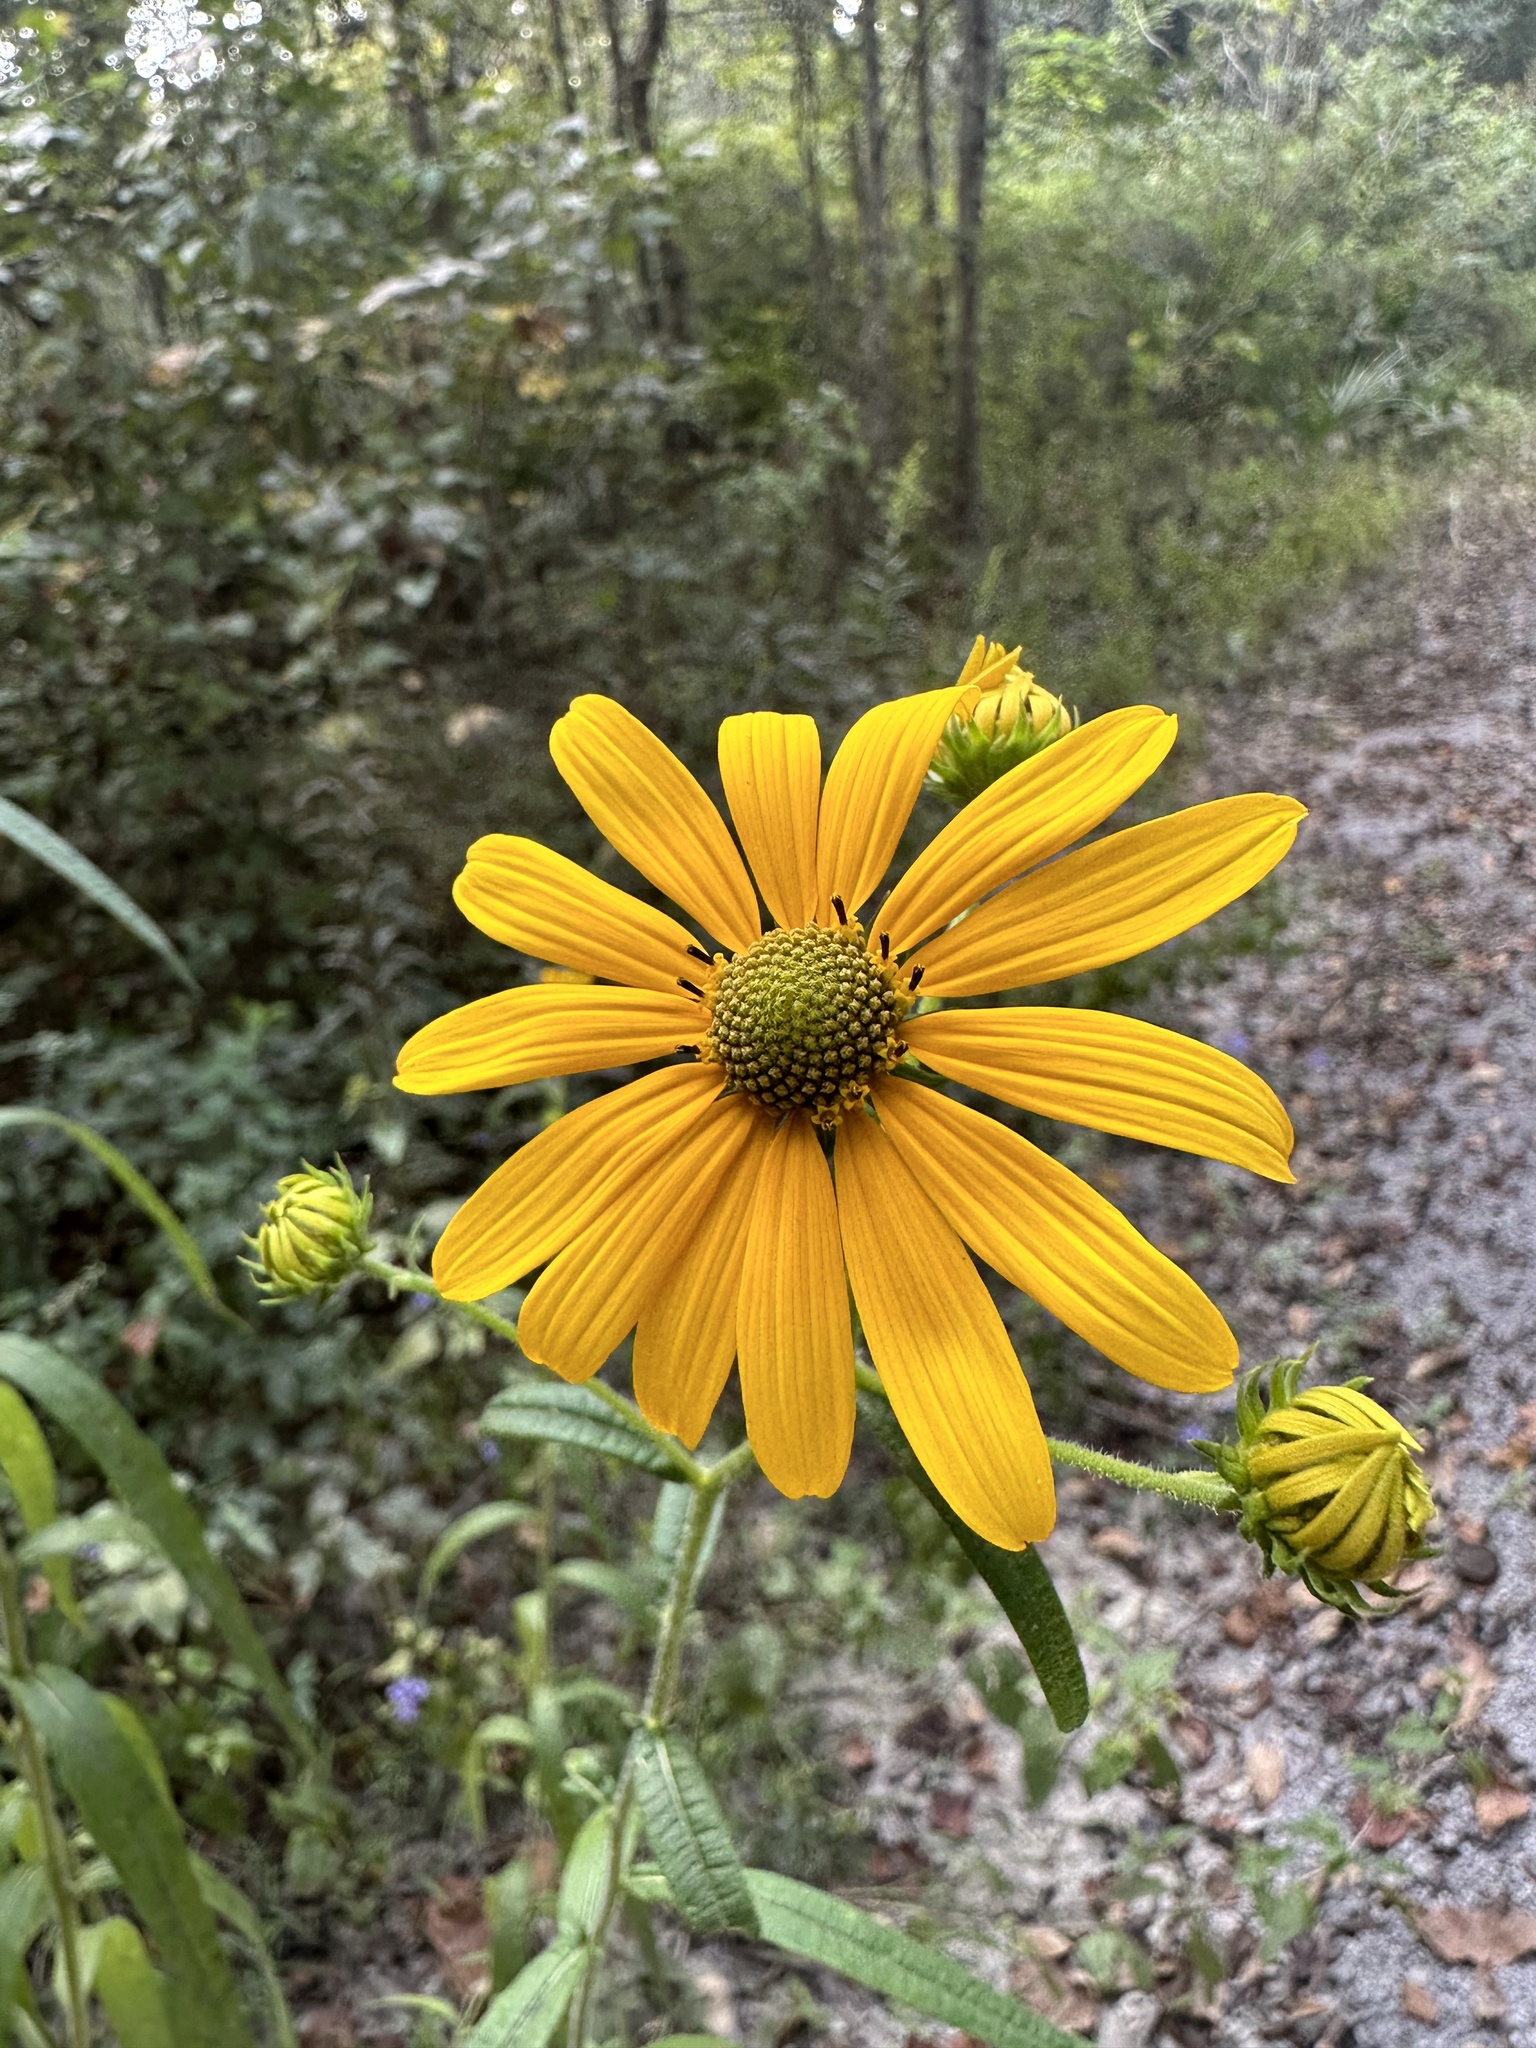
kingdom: Plantae
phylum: Tracheophyta
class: Magnoliopsida
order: Asterales
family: Asteraceae
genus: Helianthus
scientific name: Helianthus angustifolius
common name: Swamp sunflower
